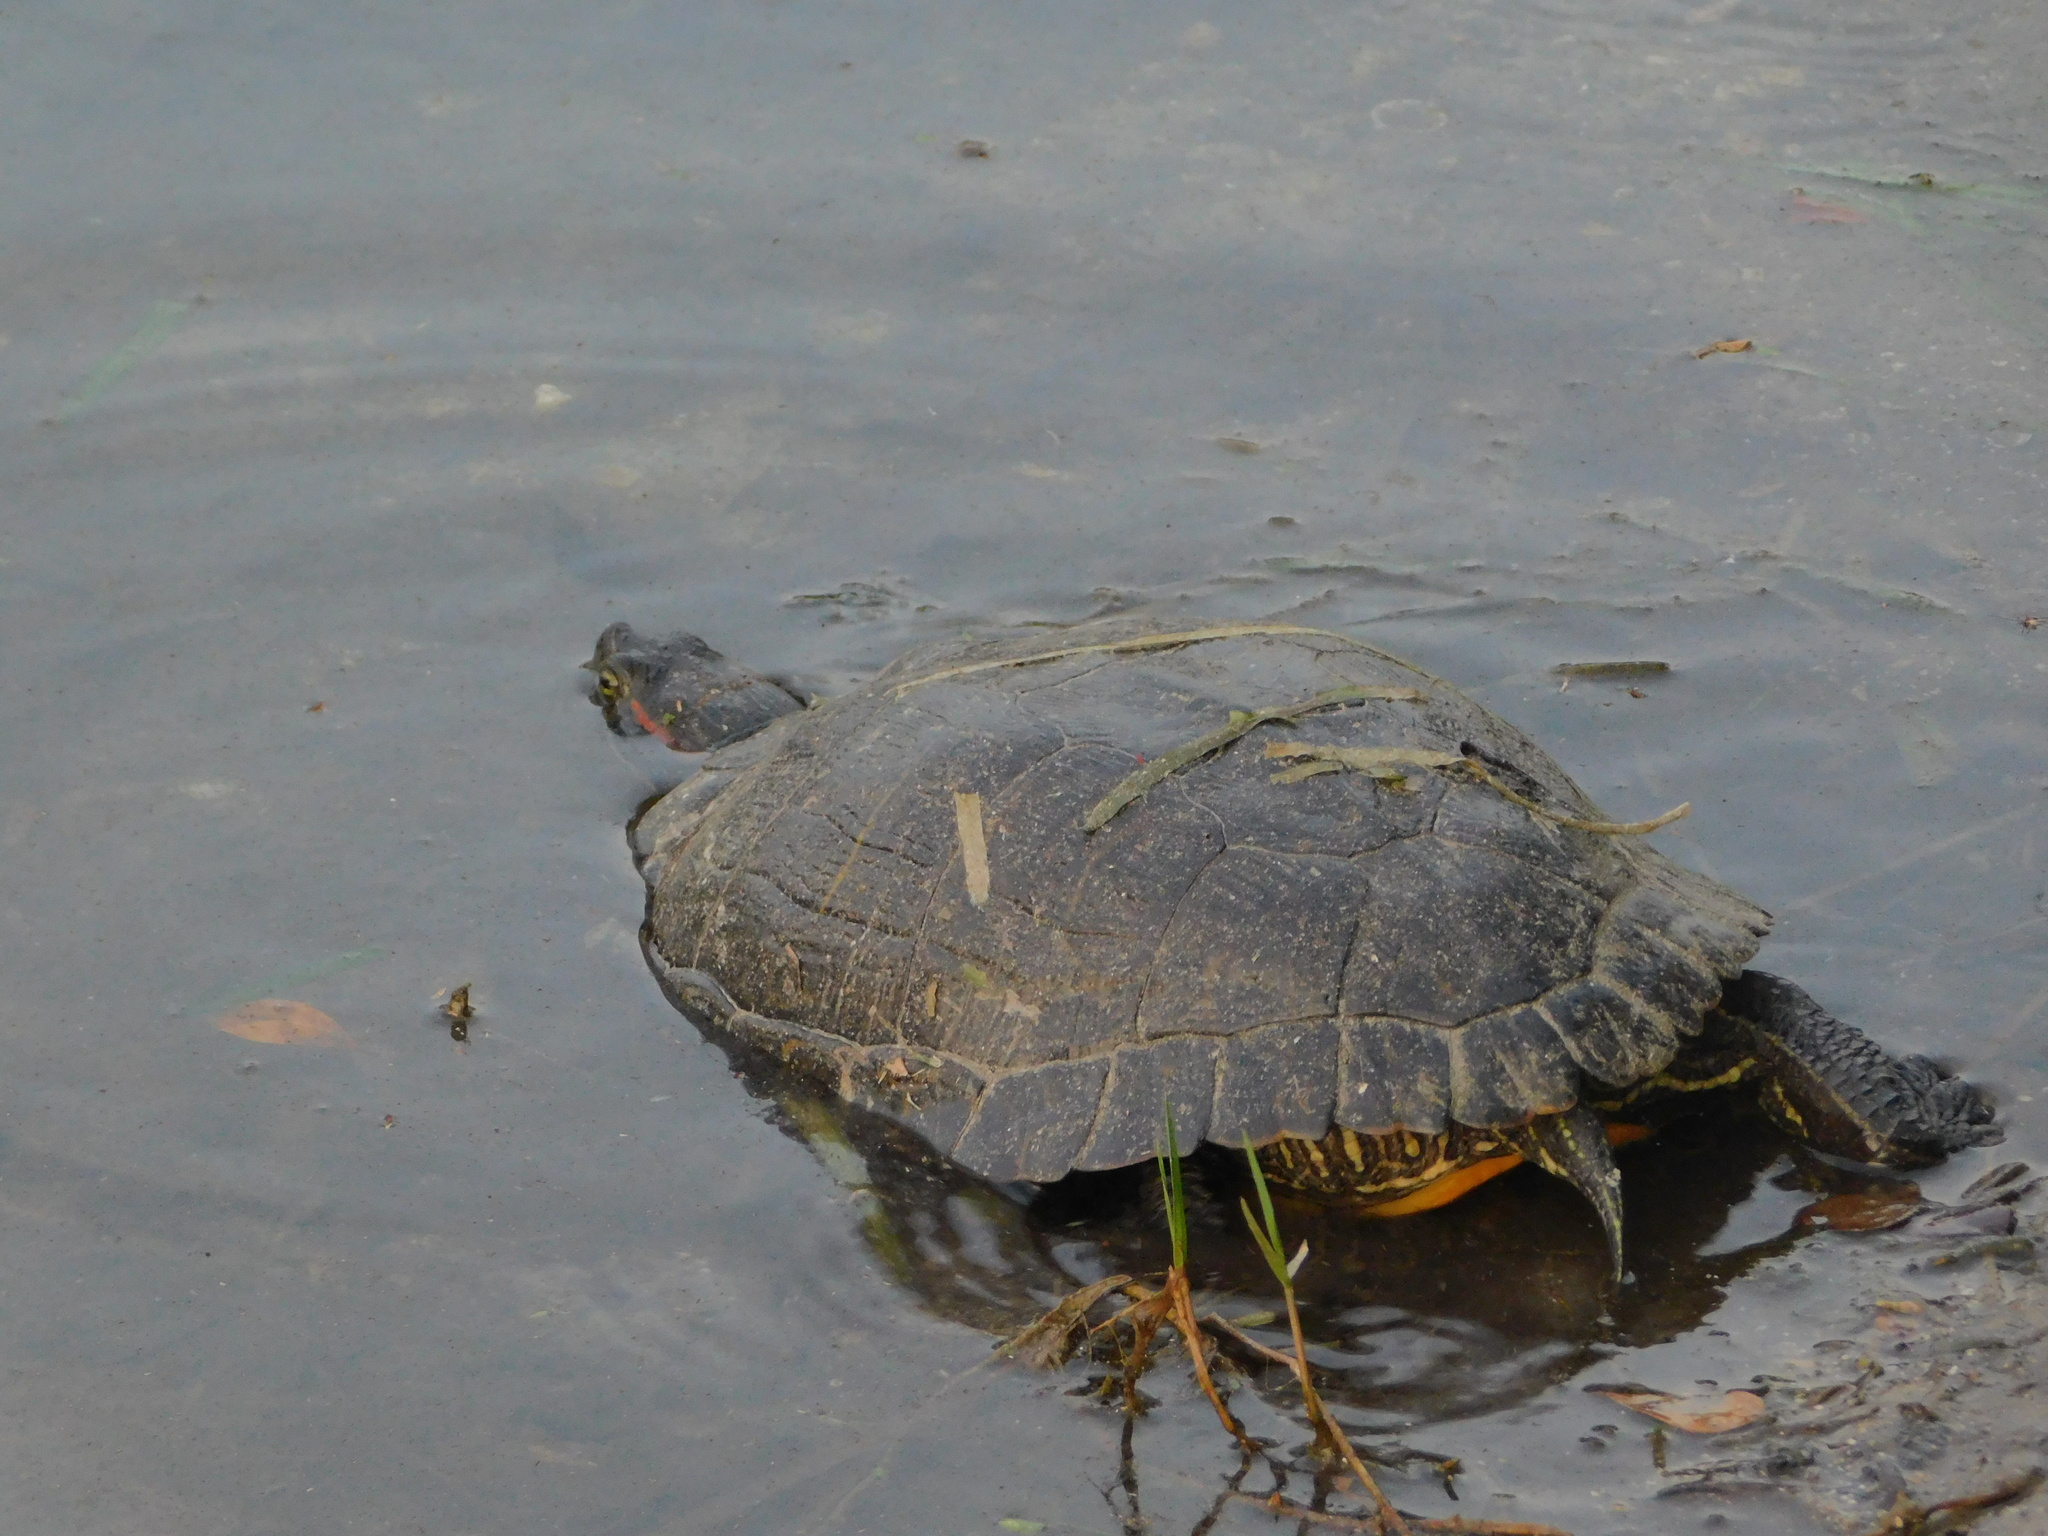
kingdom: Animalia
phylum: Chordata
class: Testudines
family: Emydidae
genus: Trachemys
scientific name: Trachemys scripta
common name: Slider
